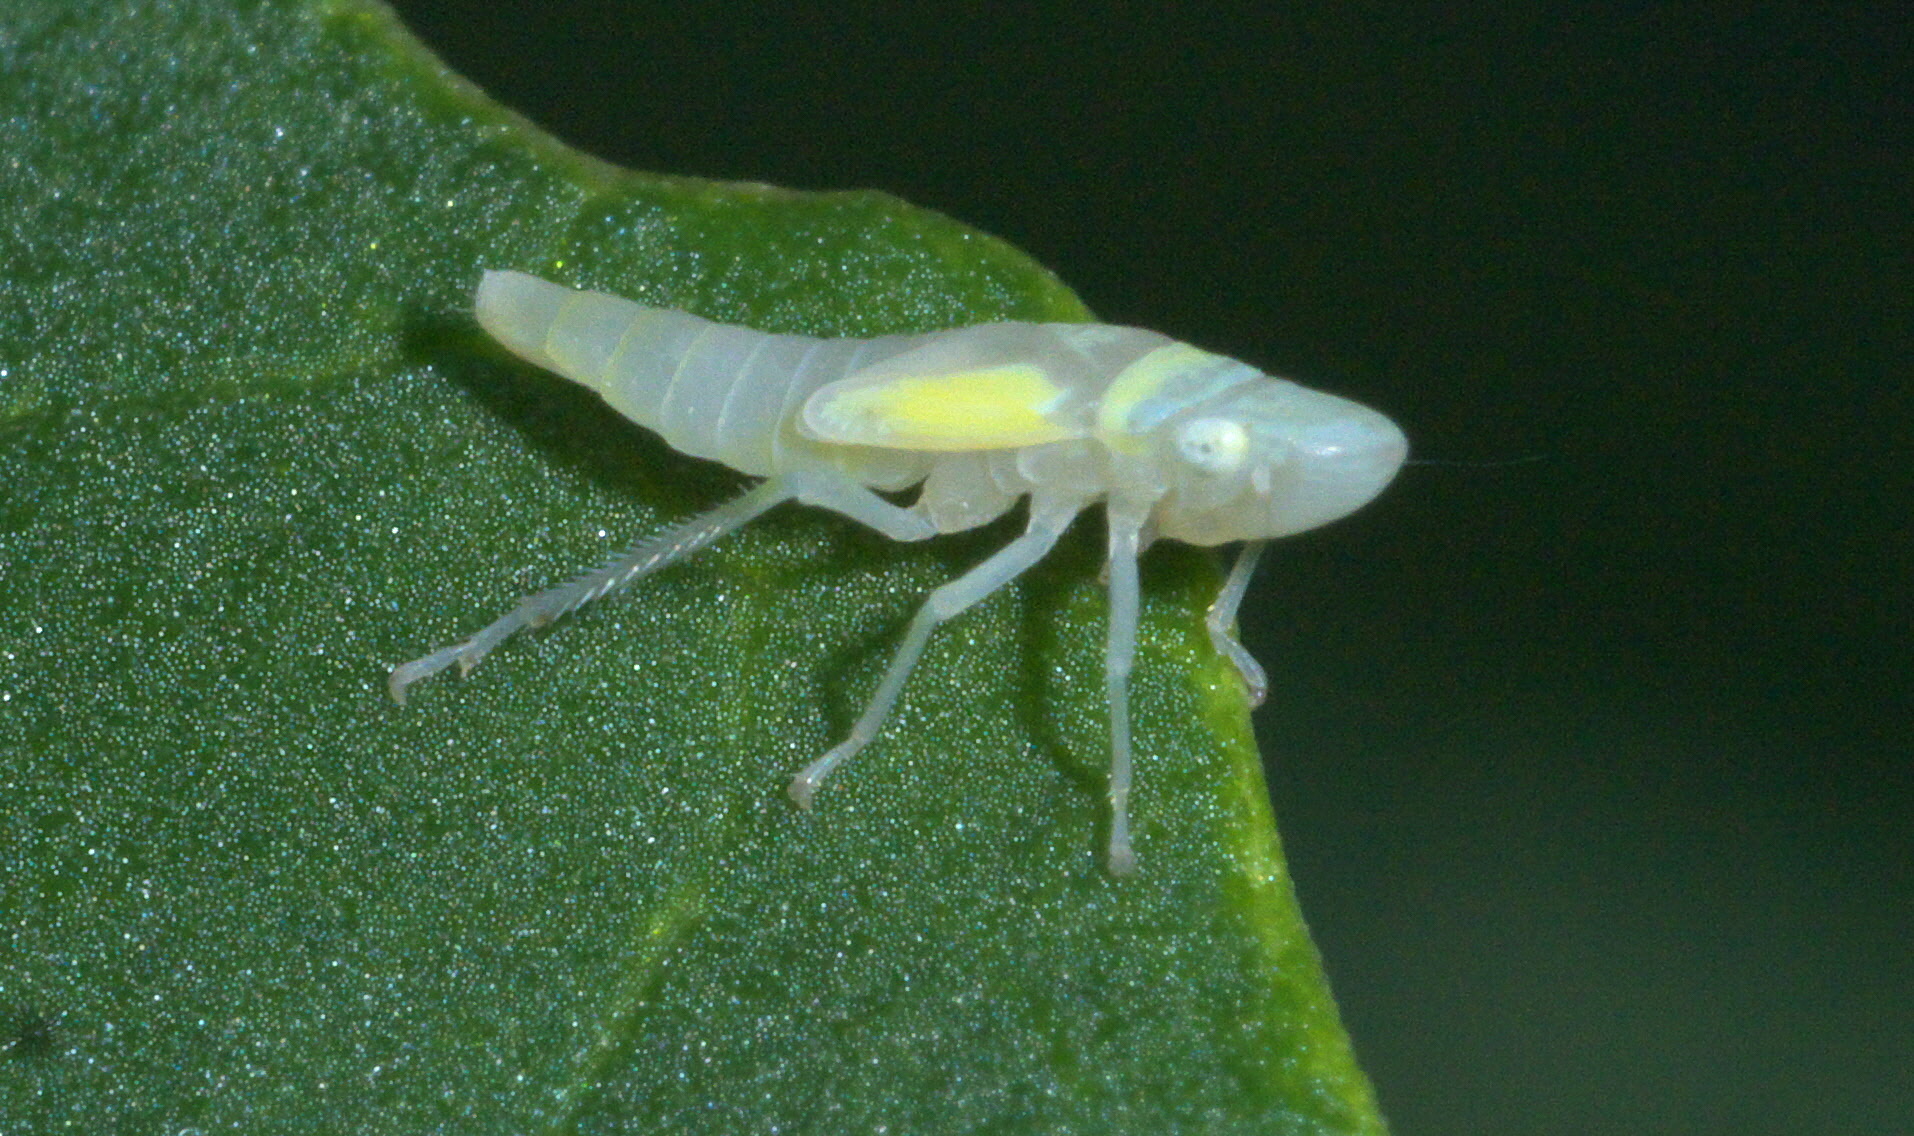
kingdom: Animalia
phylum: Arthropoda
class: Insecta
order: Hemiptera
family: Cicadellidae
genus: Graphocephala
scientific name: Graphocephala coccinea
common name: Candy-striped leafhopper
